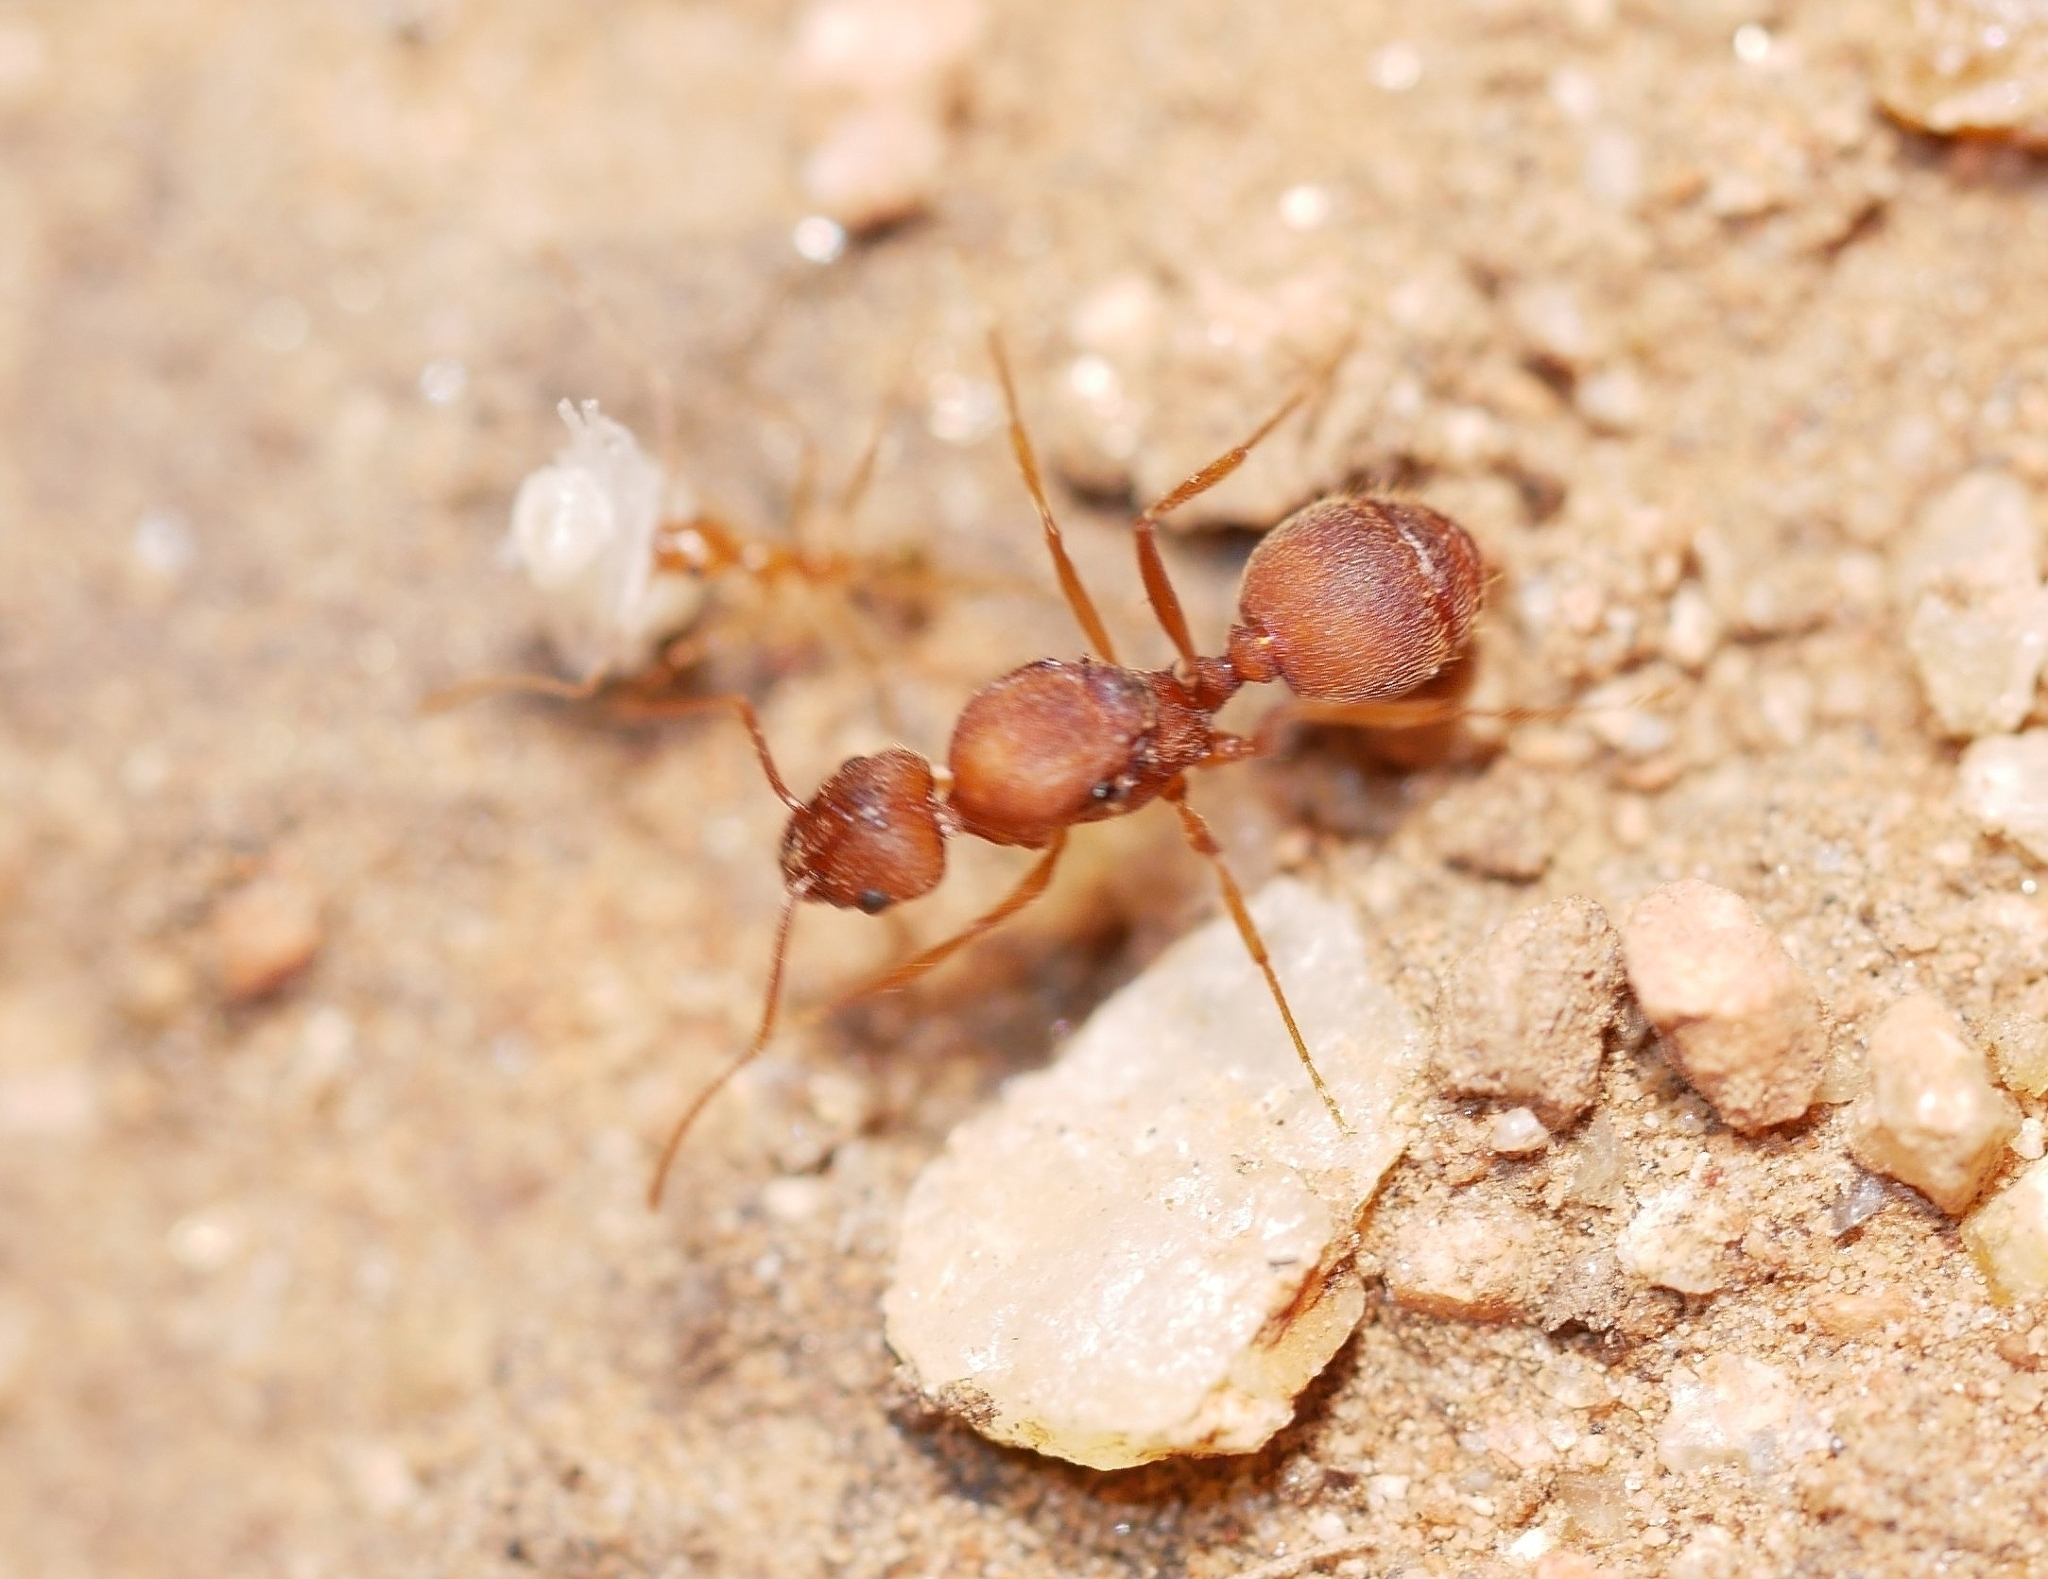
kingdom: Animalia
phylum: Arthropoda
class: Insecta
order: Hymenoptera
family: Formicidae
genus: Pheidole
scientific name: Pheidole vistana
